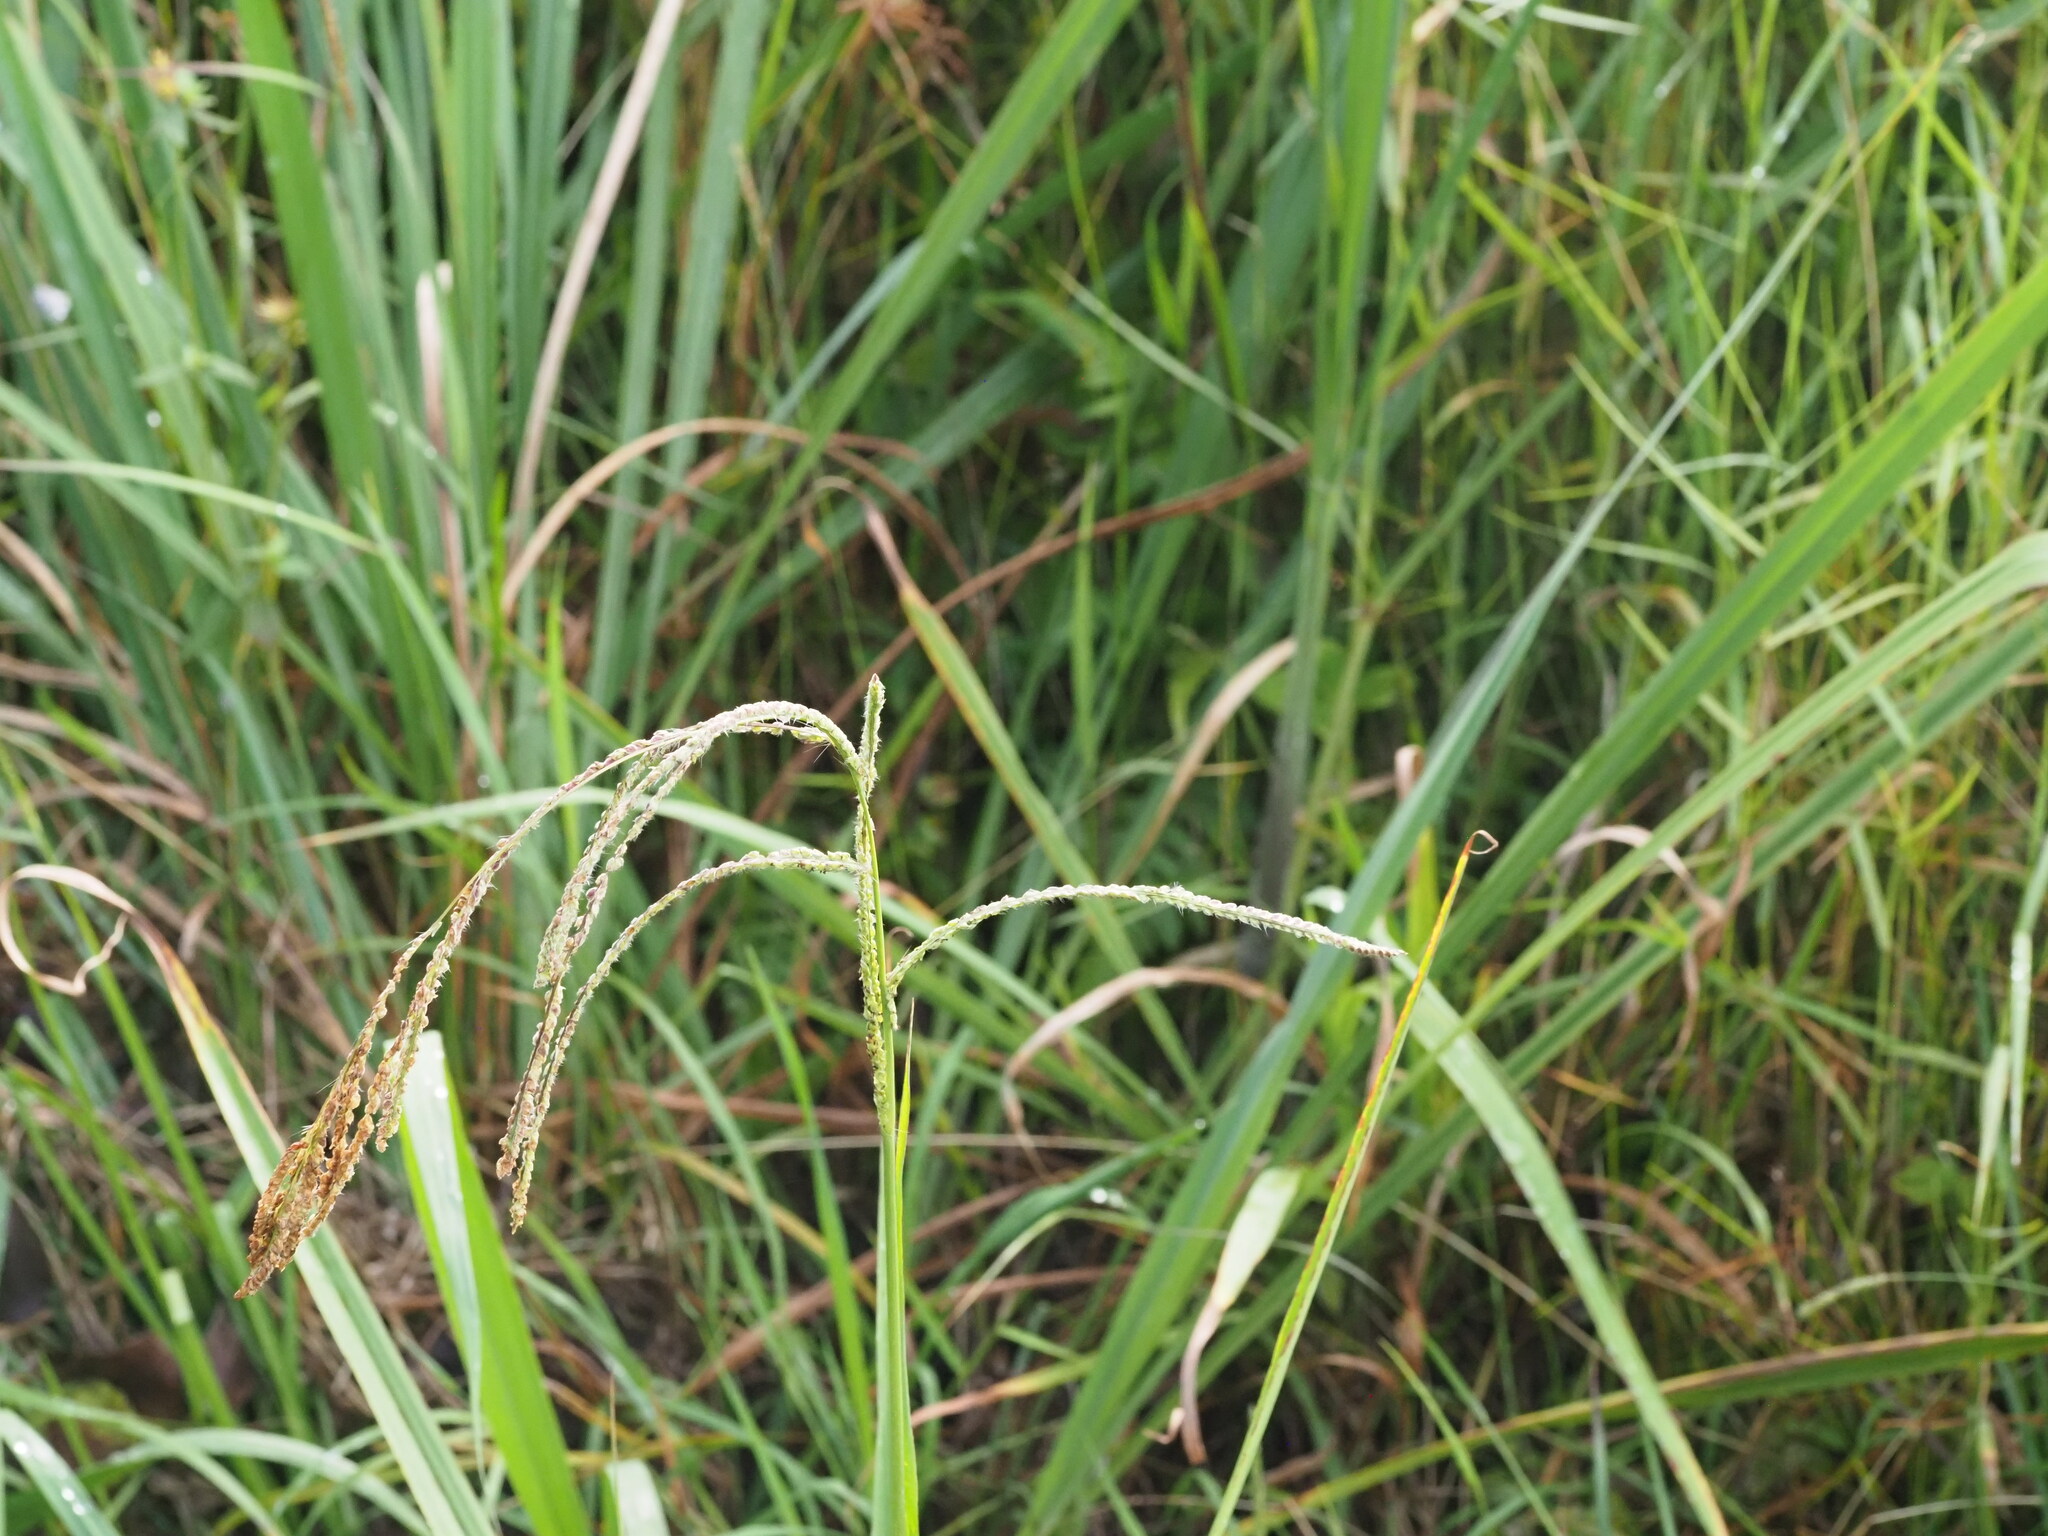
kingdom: Plantae
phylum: Tracheophyta
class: Liliopsida
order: Poales
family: Poaceae
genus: Paspalum
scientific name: Paspalum urvillei
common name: Vasey's grass
